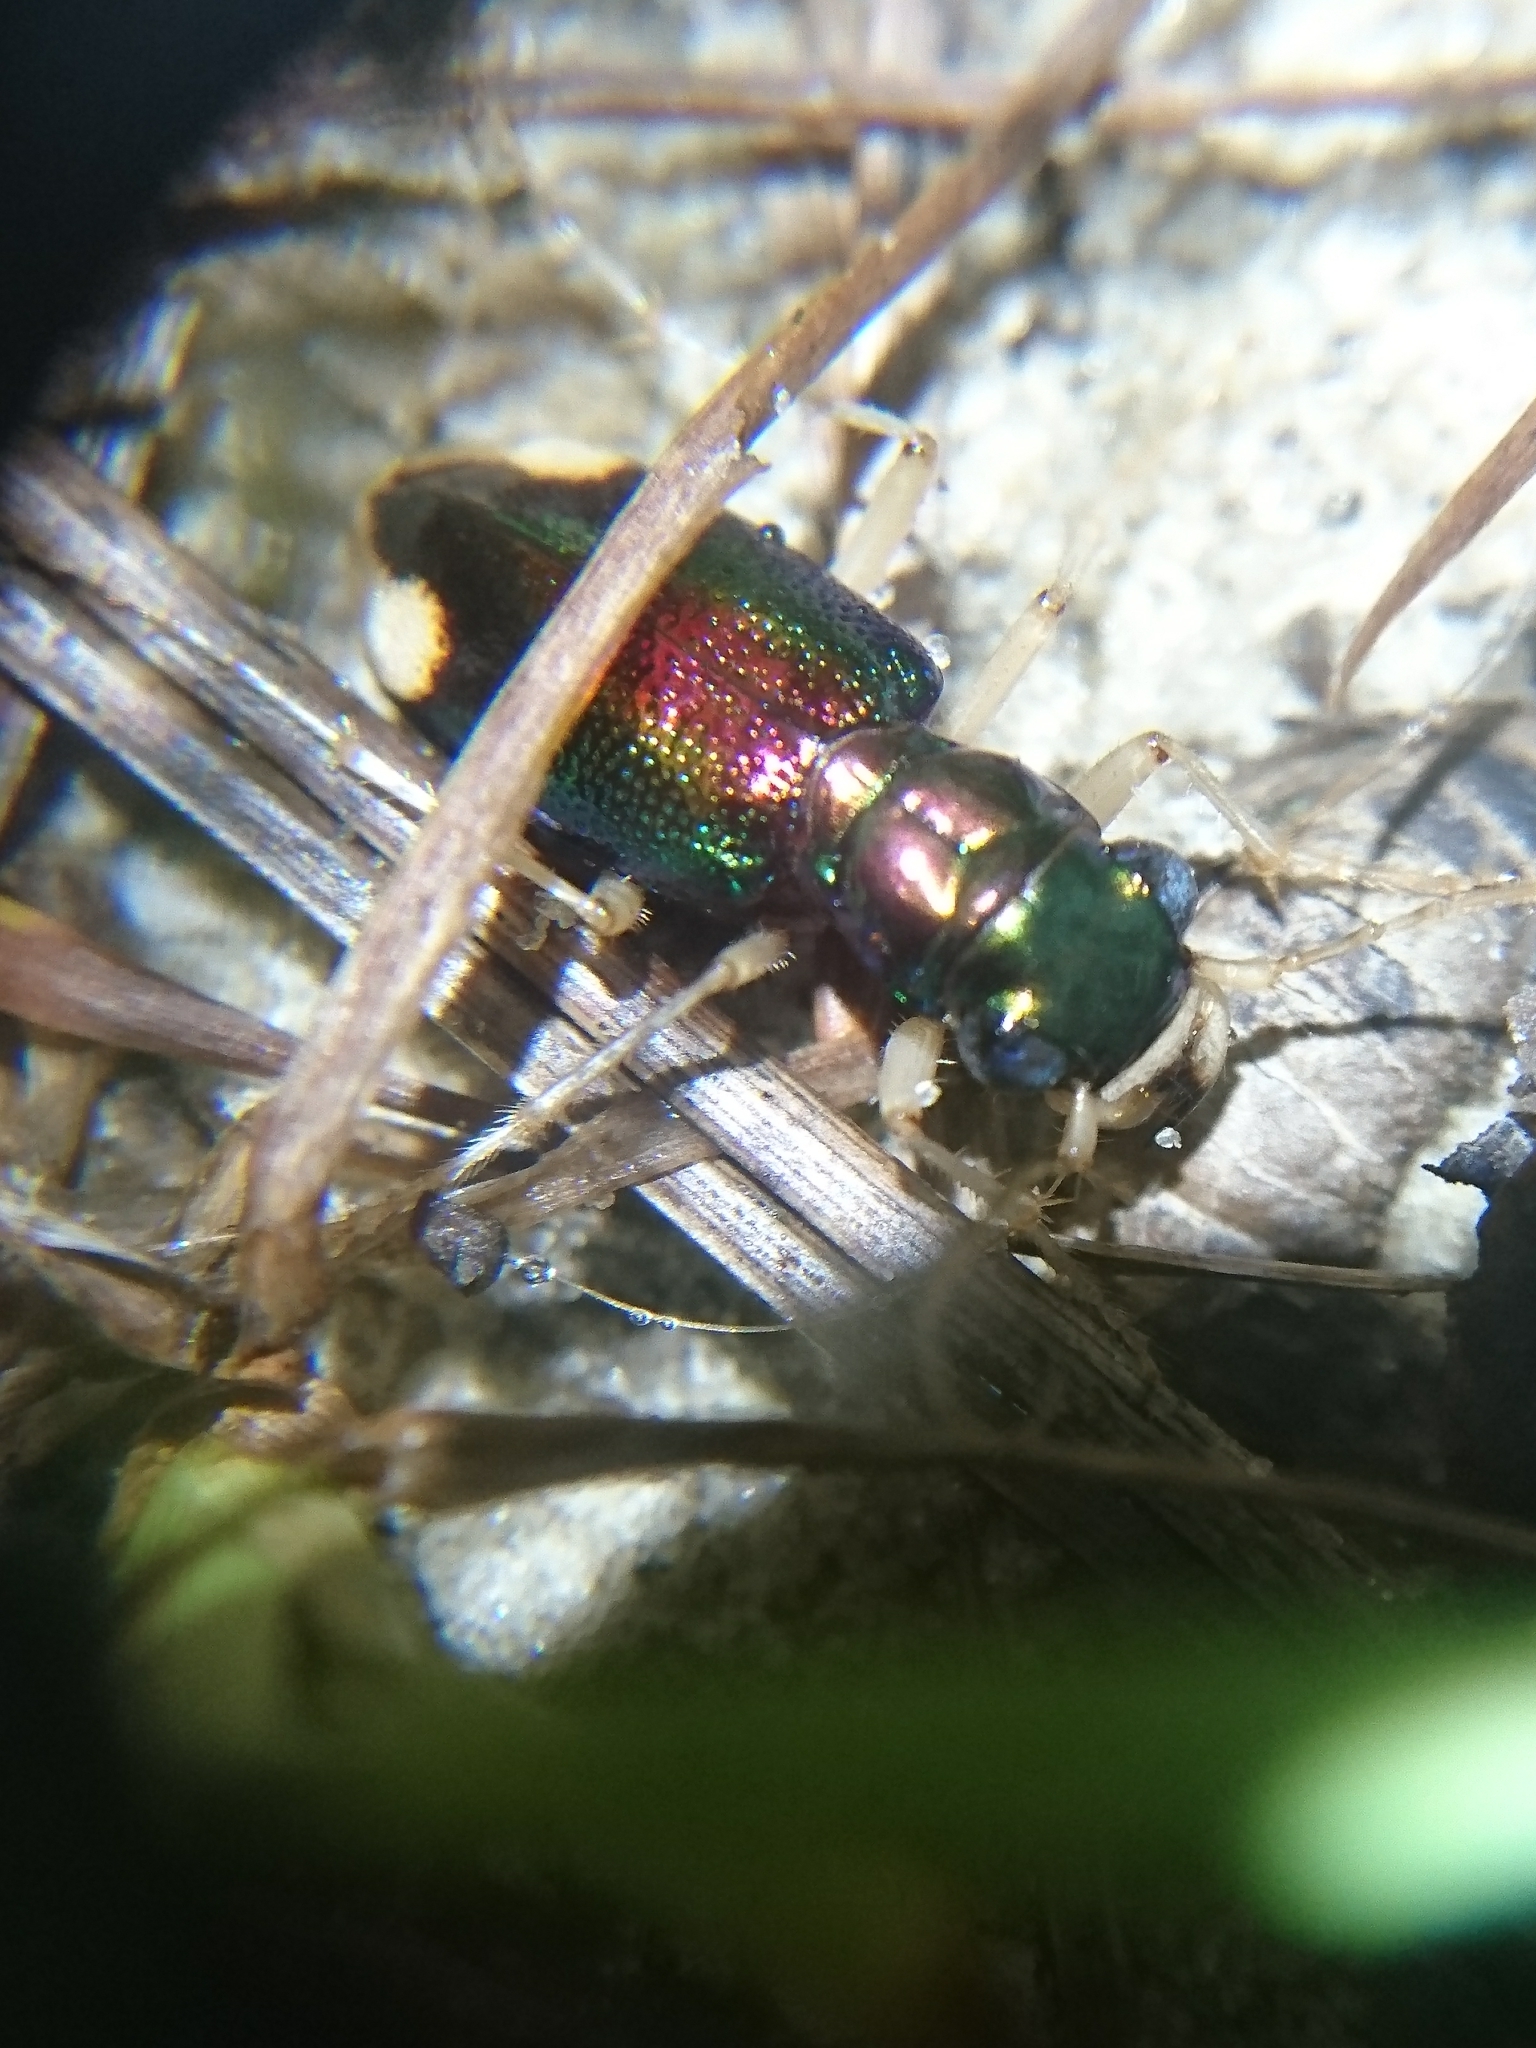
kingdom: Animalia
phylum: Arthropoda
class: Insecta
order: Coleoptera
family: Carabidae
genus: Tetracha
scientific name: Tetracha carolina
